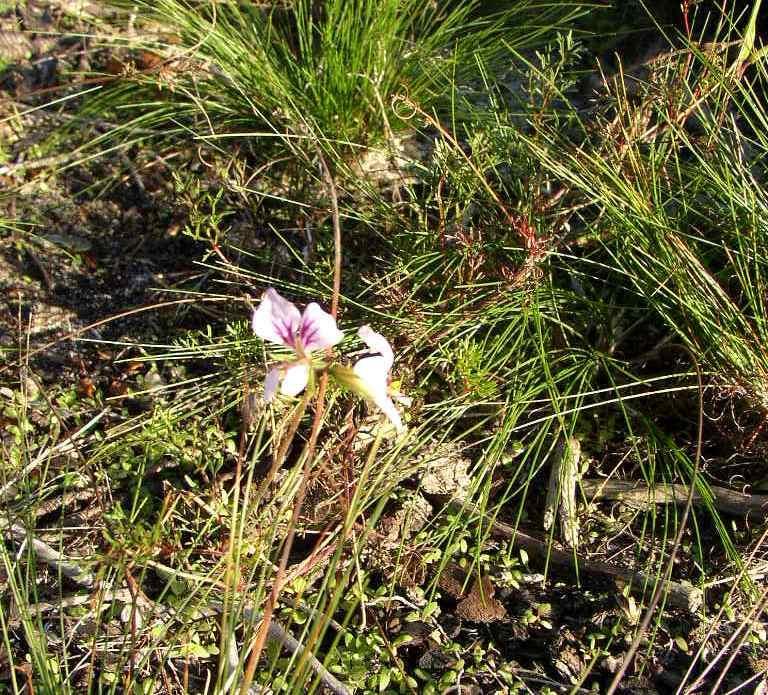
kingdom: Plantae
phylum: Tracheophyta
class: Magnoliopsida
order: Geraniales
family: Geraniaceae
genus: Pelargonium
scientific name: Pelargonium myrrhifolium
